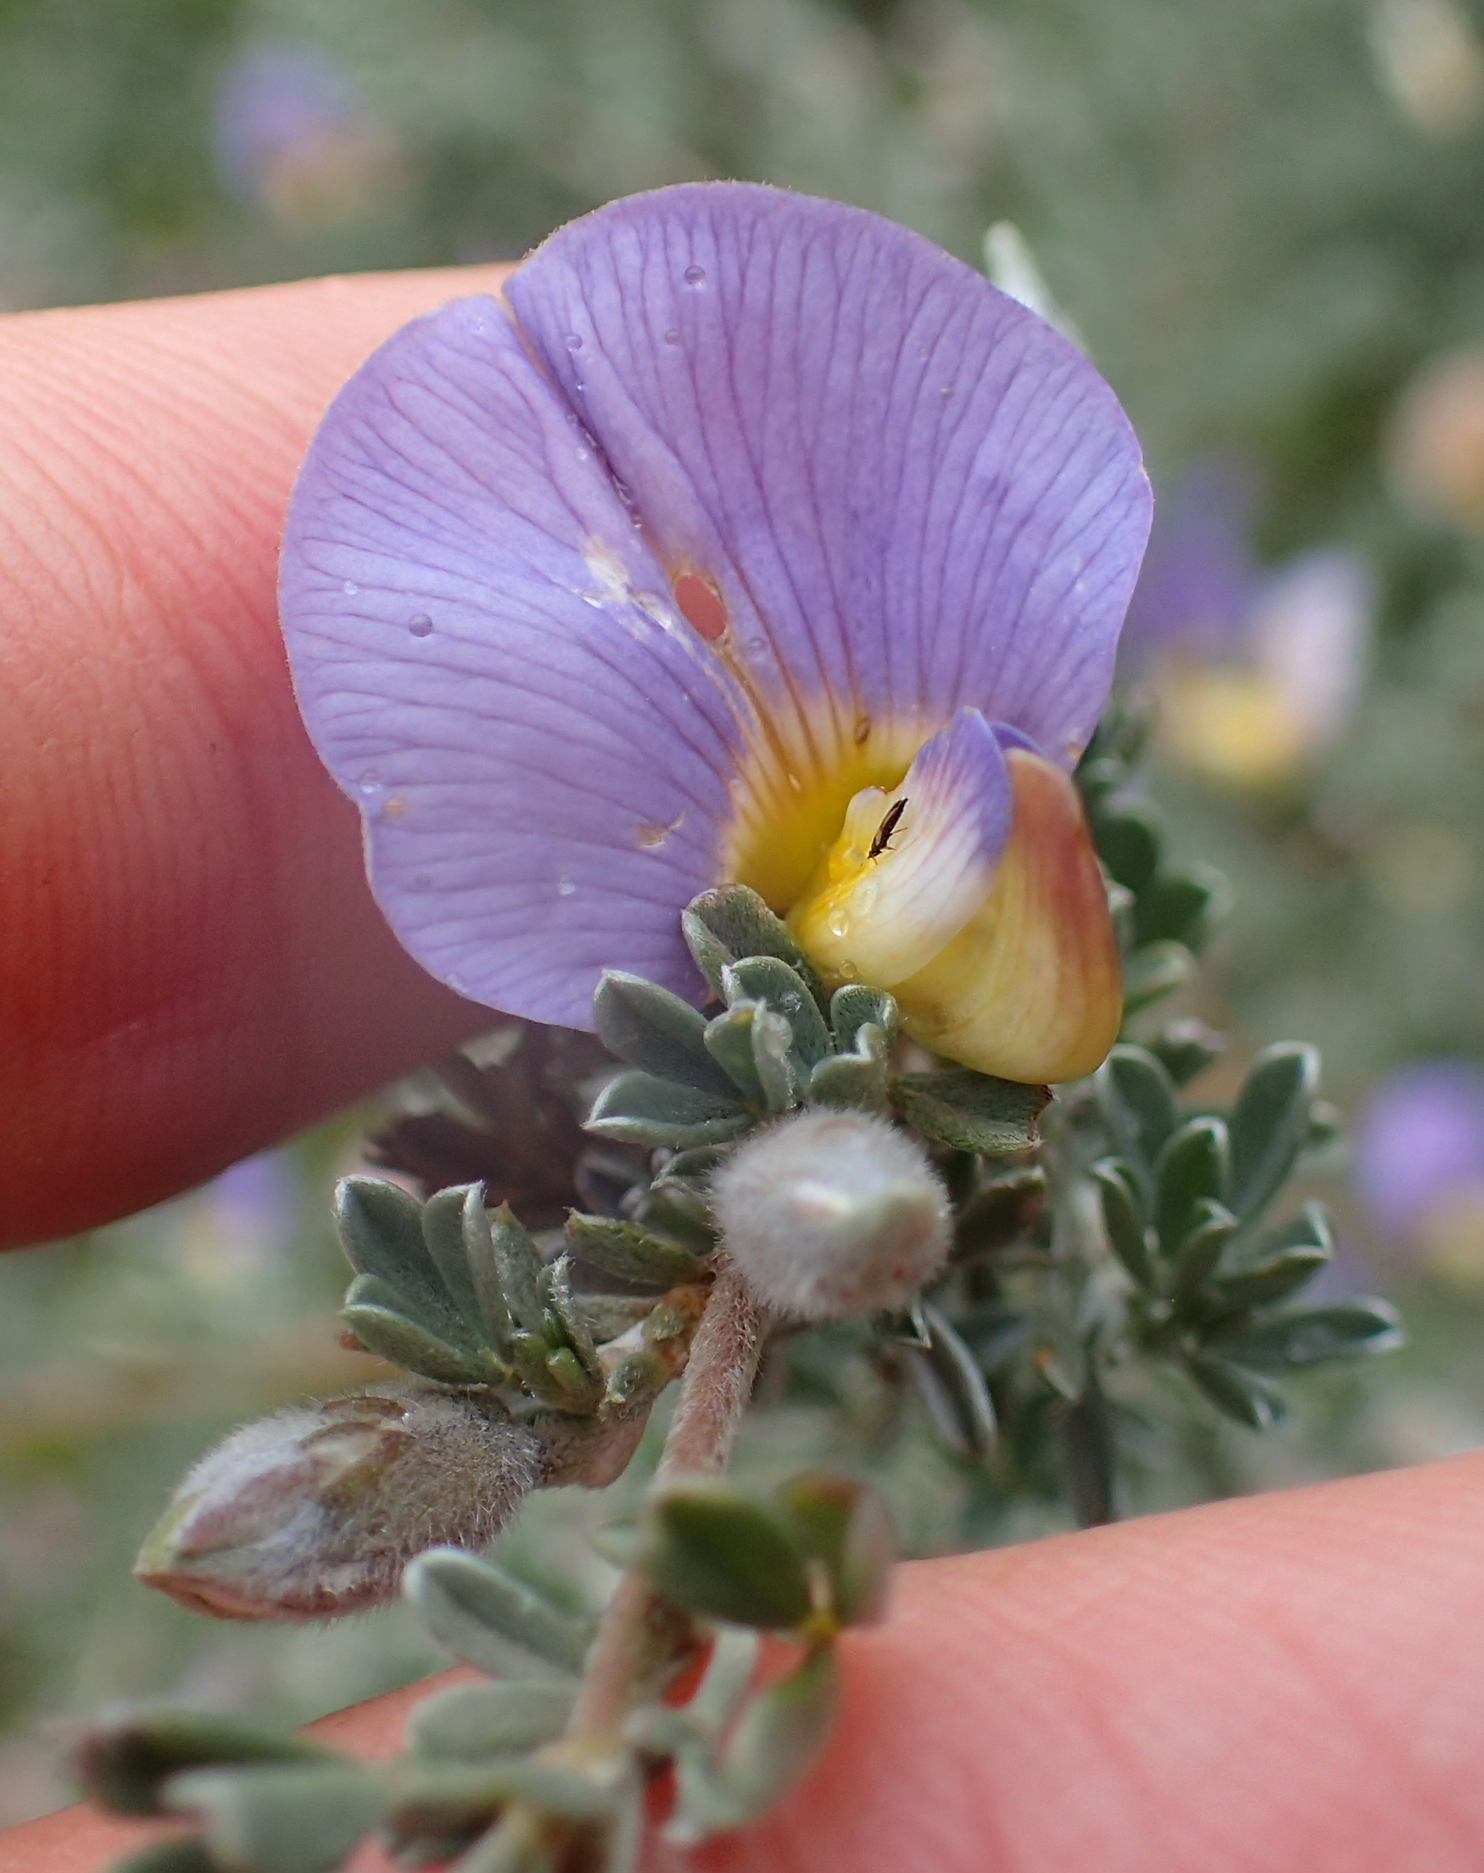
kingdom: Plantae
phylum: Tracheophyta
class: Magnoliopsida
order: Fabales
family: Fabaceae
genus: Lotononis
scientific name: Lotononis sericophylla
